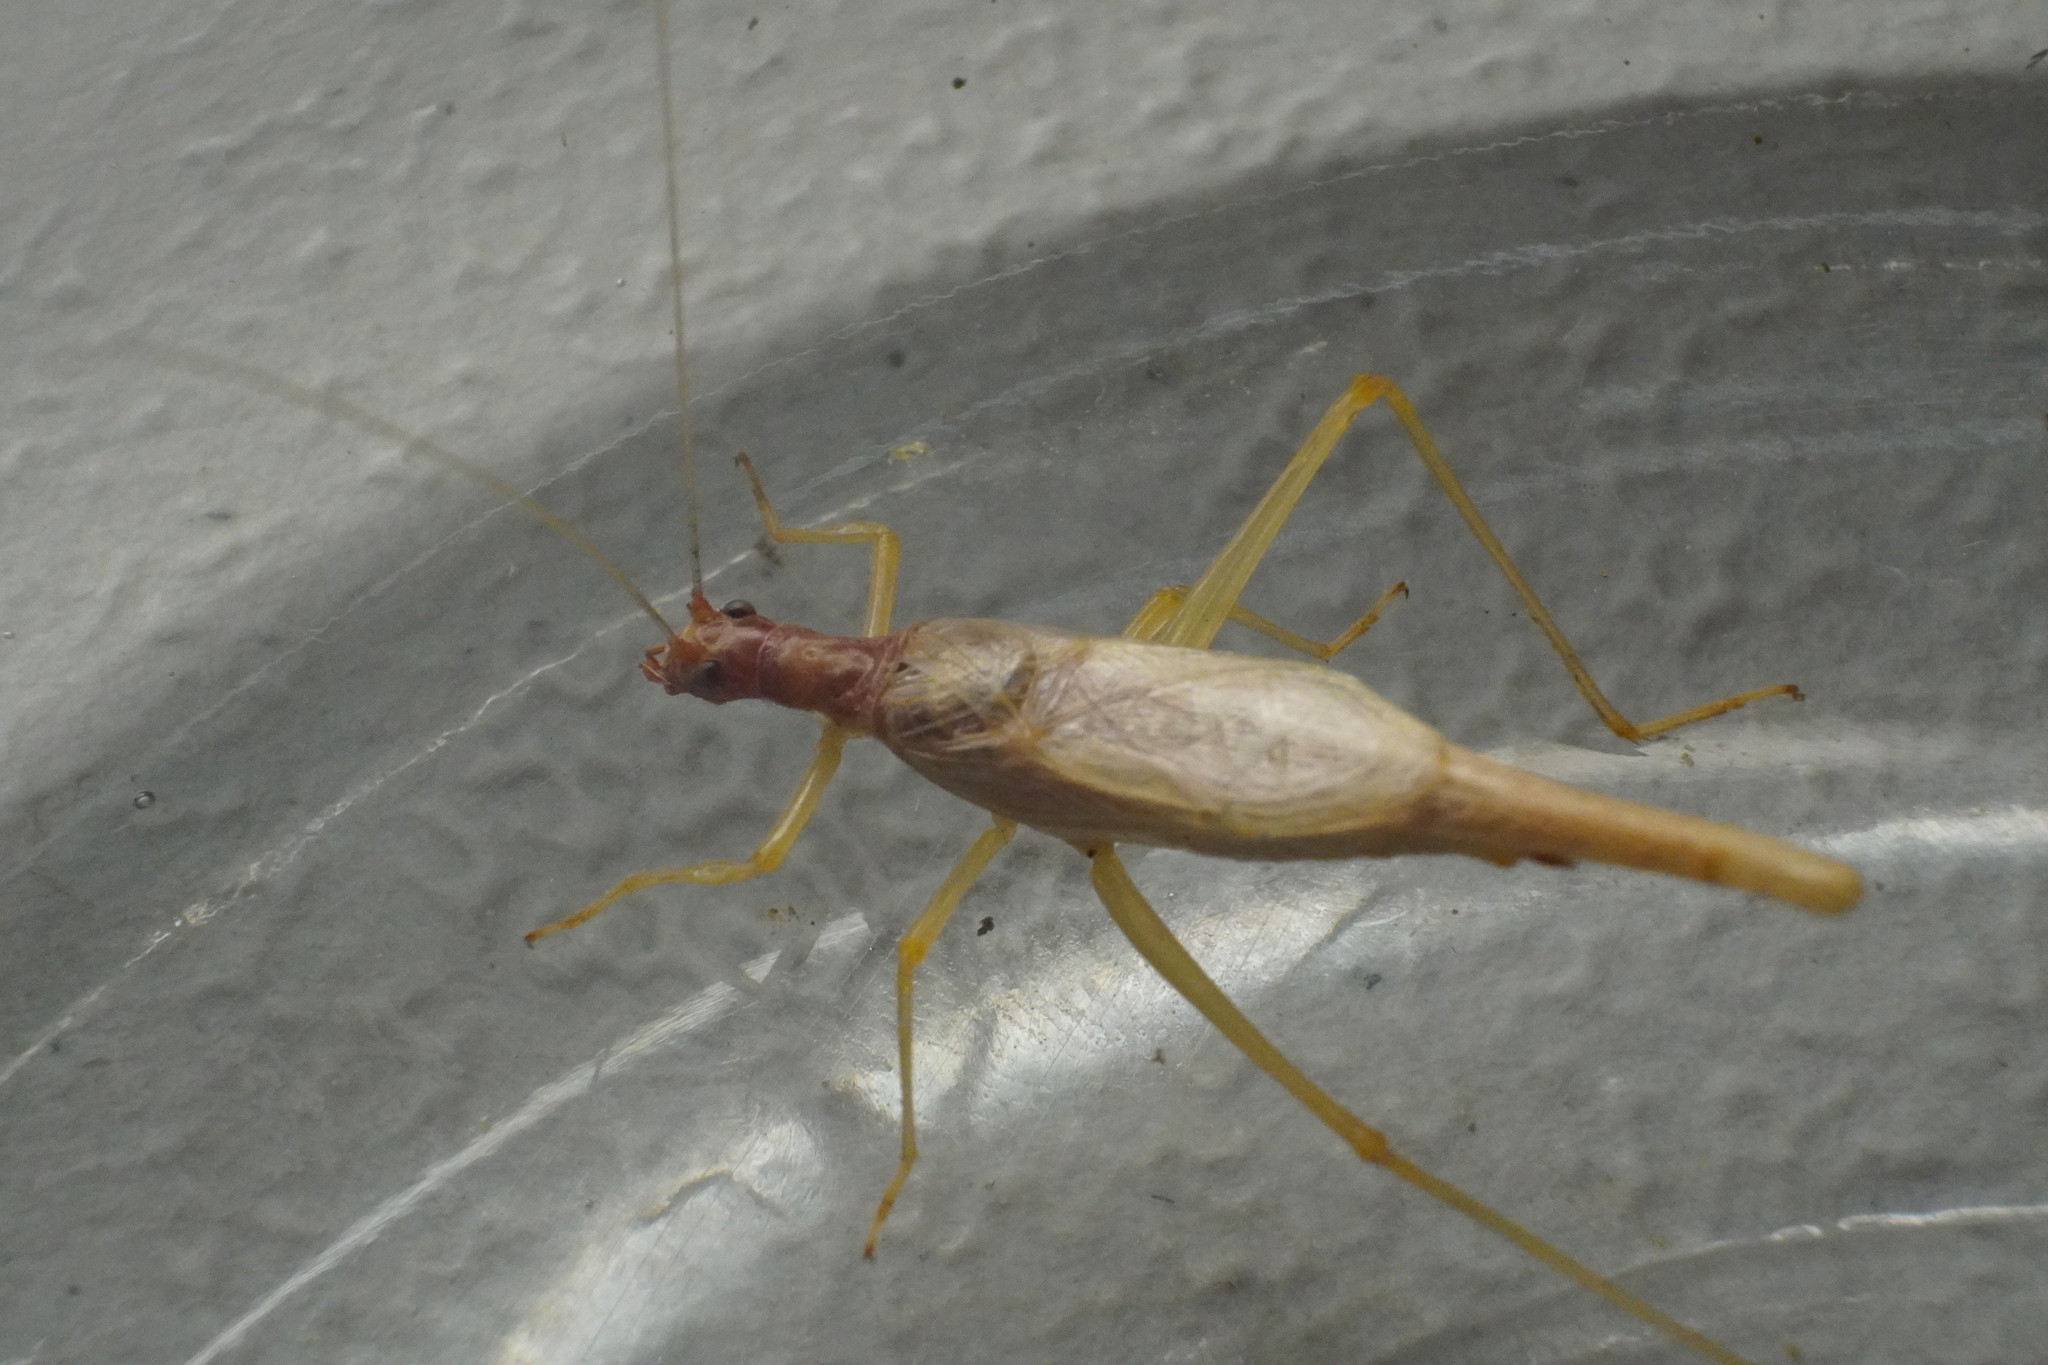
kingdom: Animalia
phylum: Arthropoda
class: Insecta
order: Orthoptera
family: Gryllidae
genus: Neoxabea
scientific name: Neoxabea bipunctata
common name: Two-spotted tree cricket
